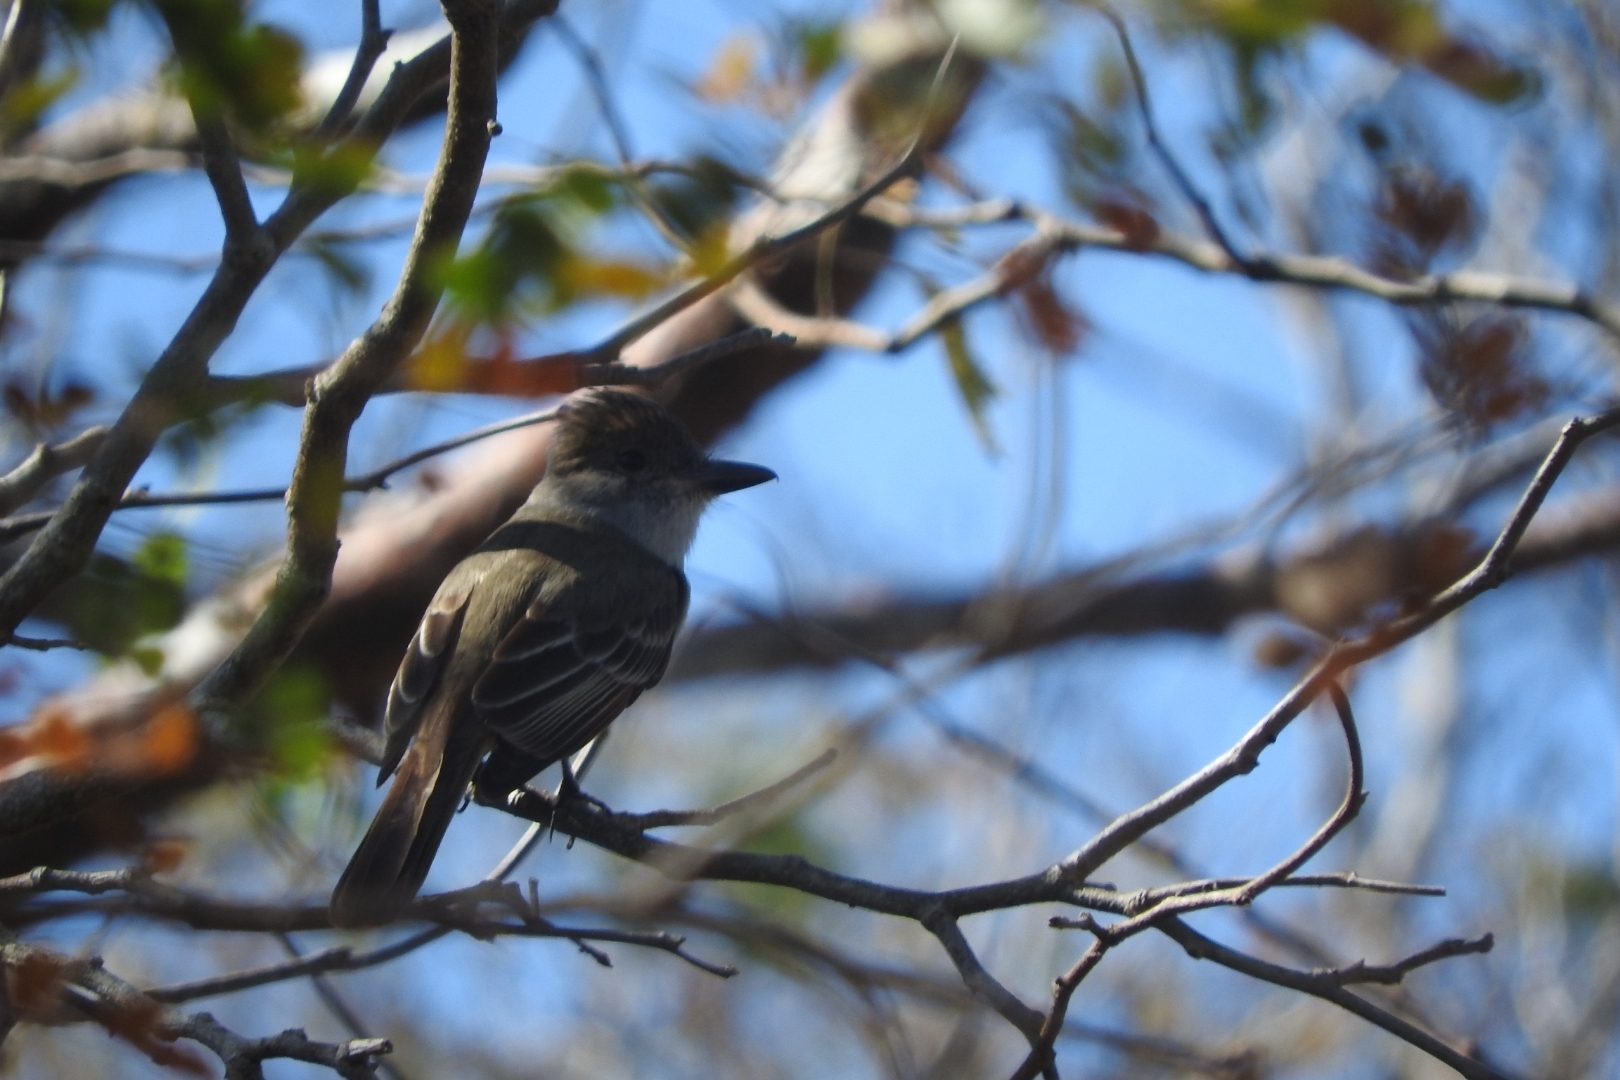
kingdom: Animalia
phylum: Chordata
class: Aves
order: Passeriformes
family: Tyrannidae
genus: Myiarchus
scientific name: Myiarchus tyrannulus
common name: Brown-crested flycatcher
